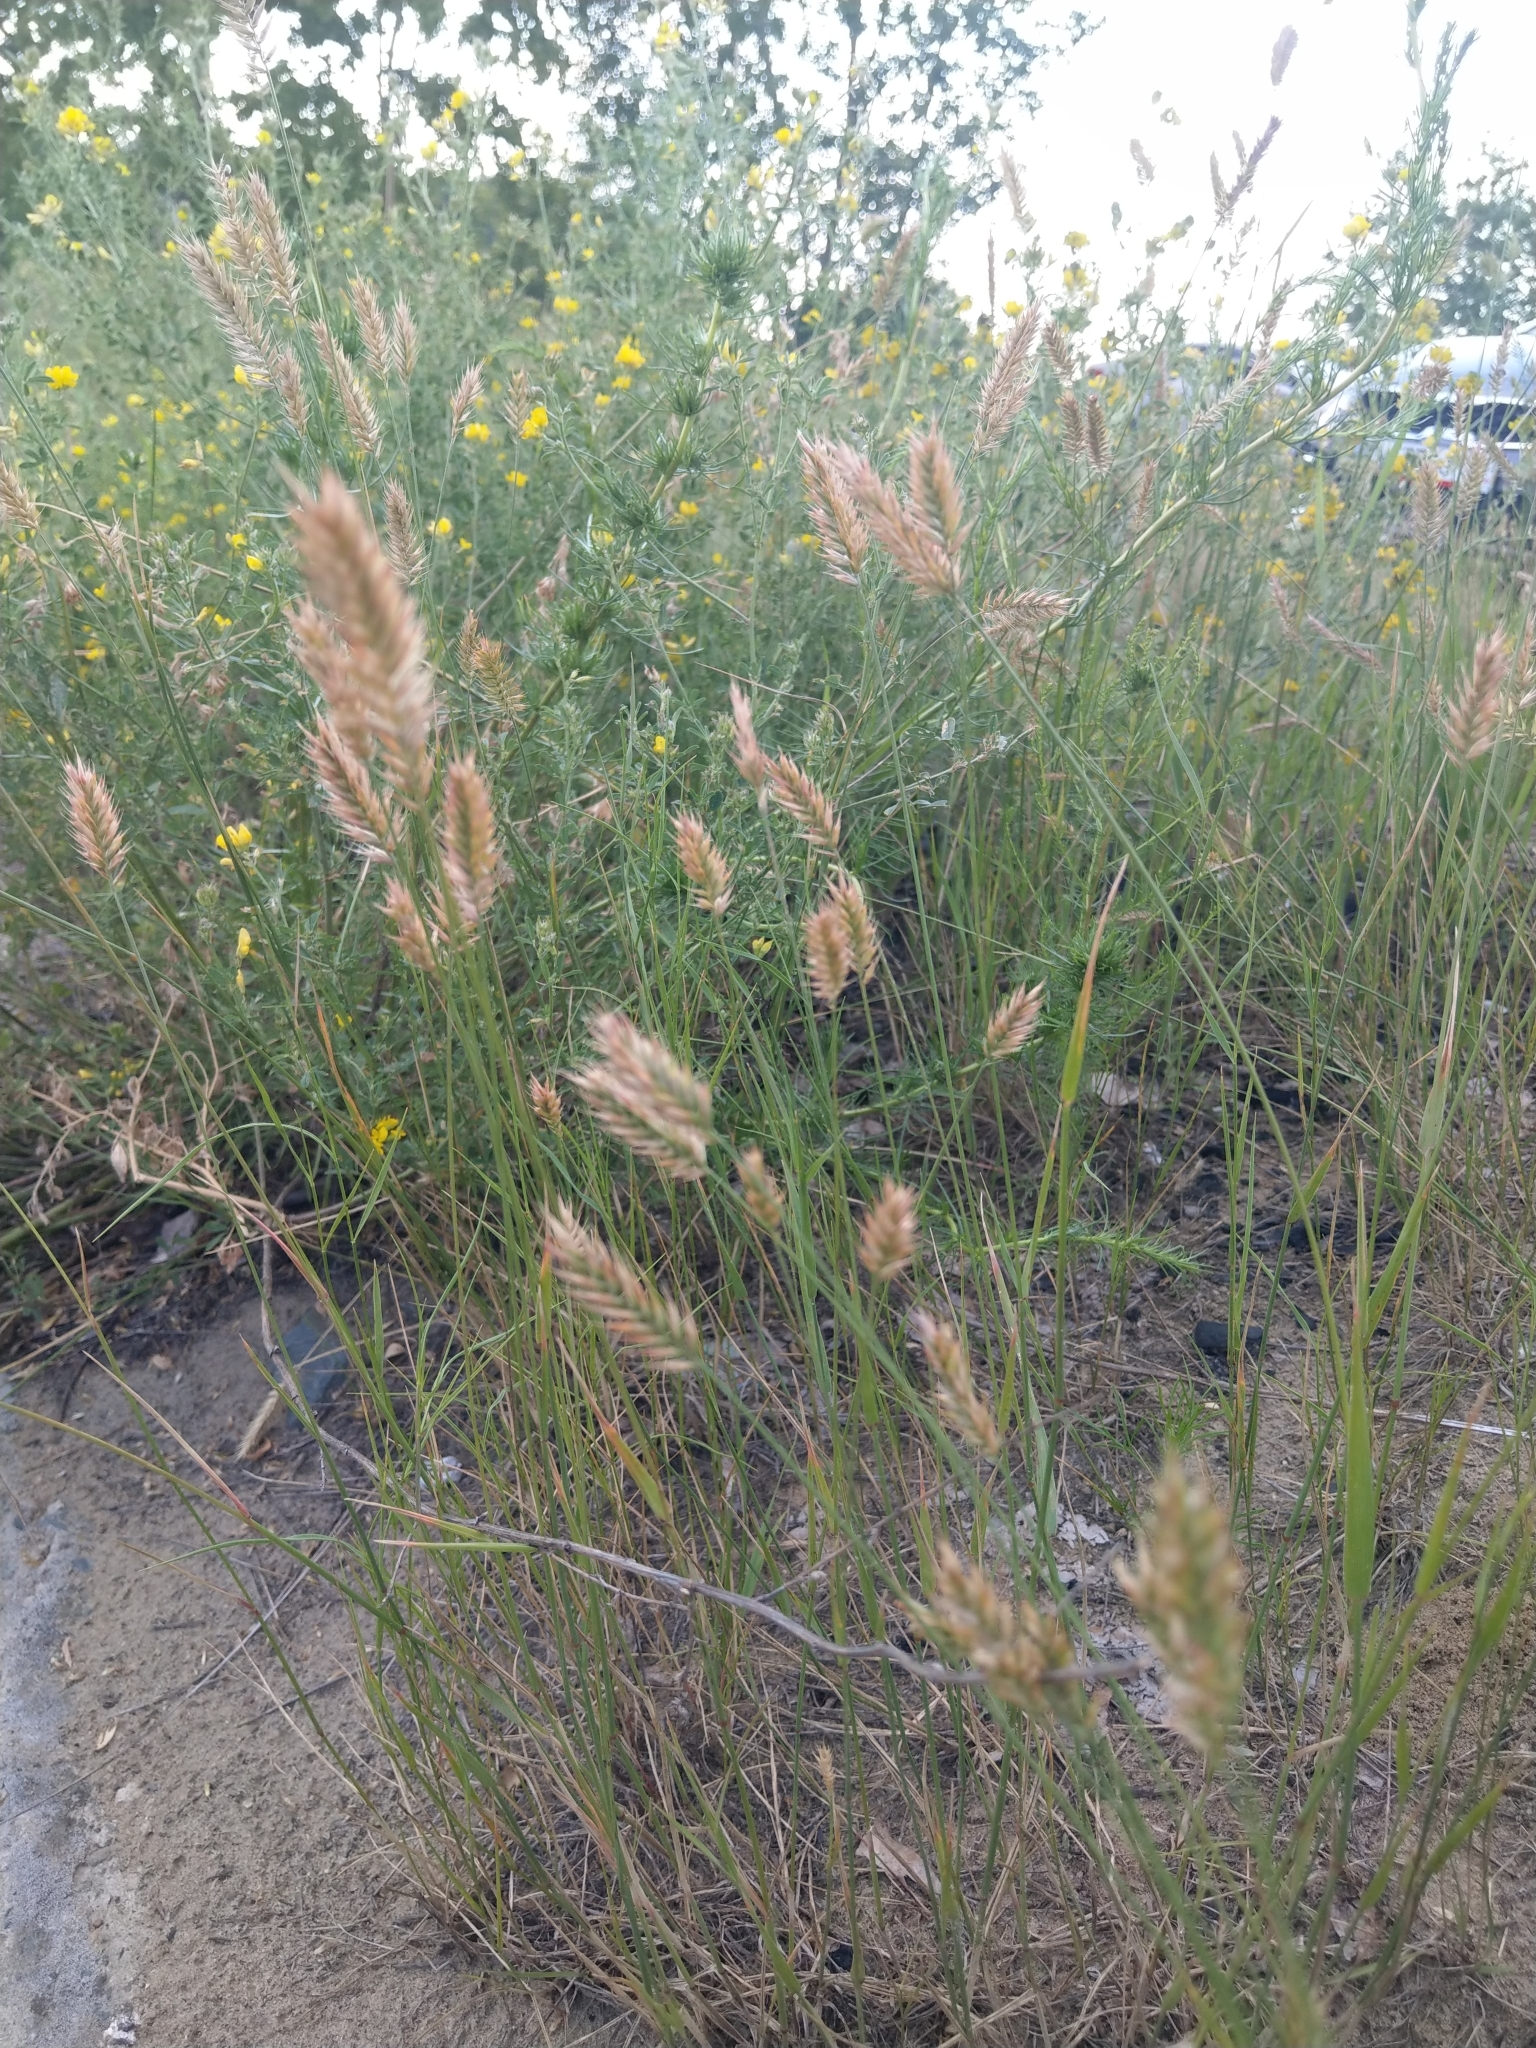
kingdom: Plantae
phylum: Tracheophyta
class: Liliopsida
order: Poales
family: Poaceae
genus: Agropyron
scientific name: Agropyron cristatum
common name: Crested wheatgrass
